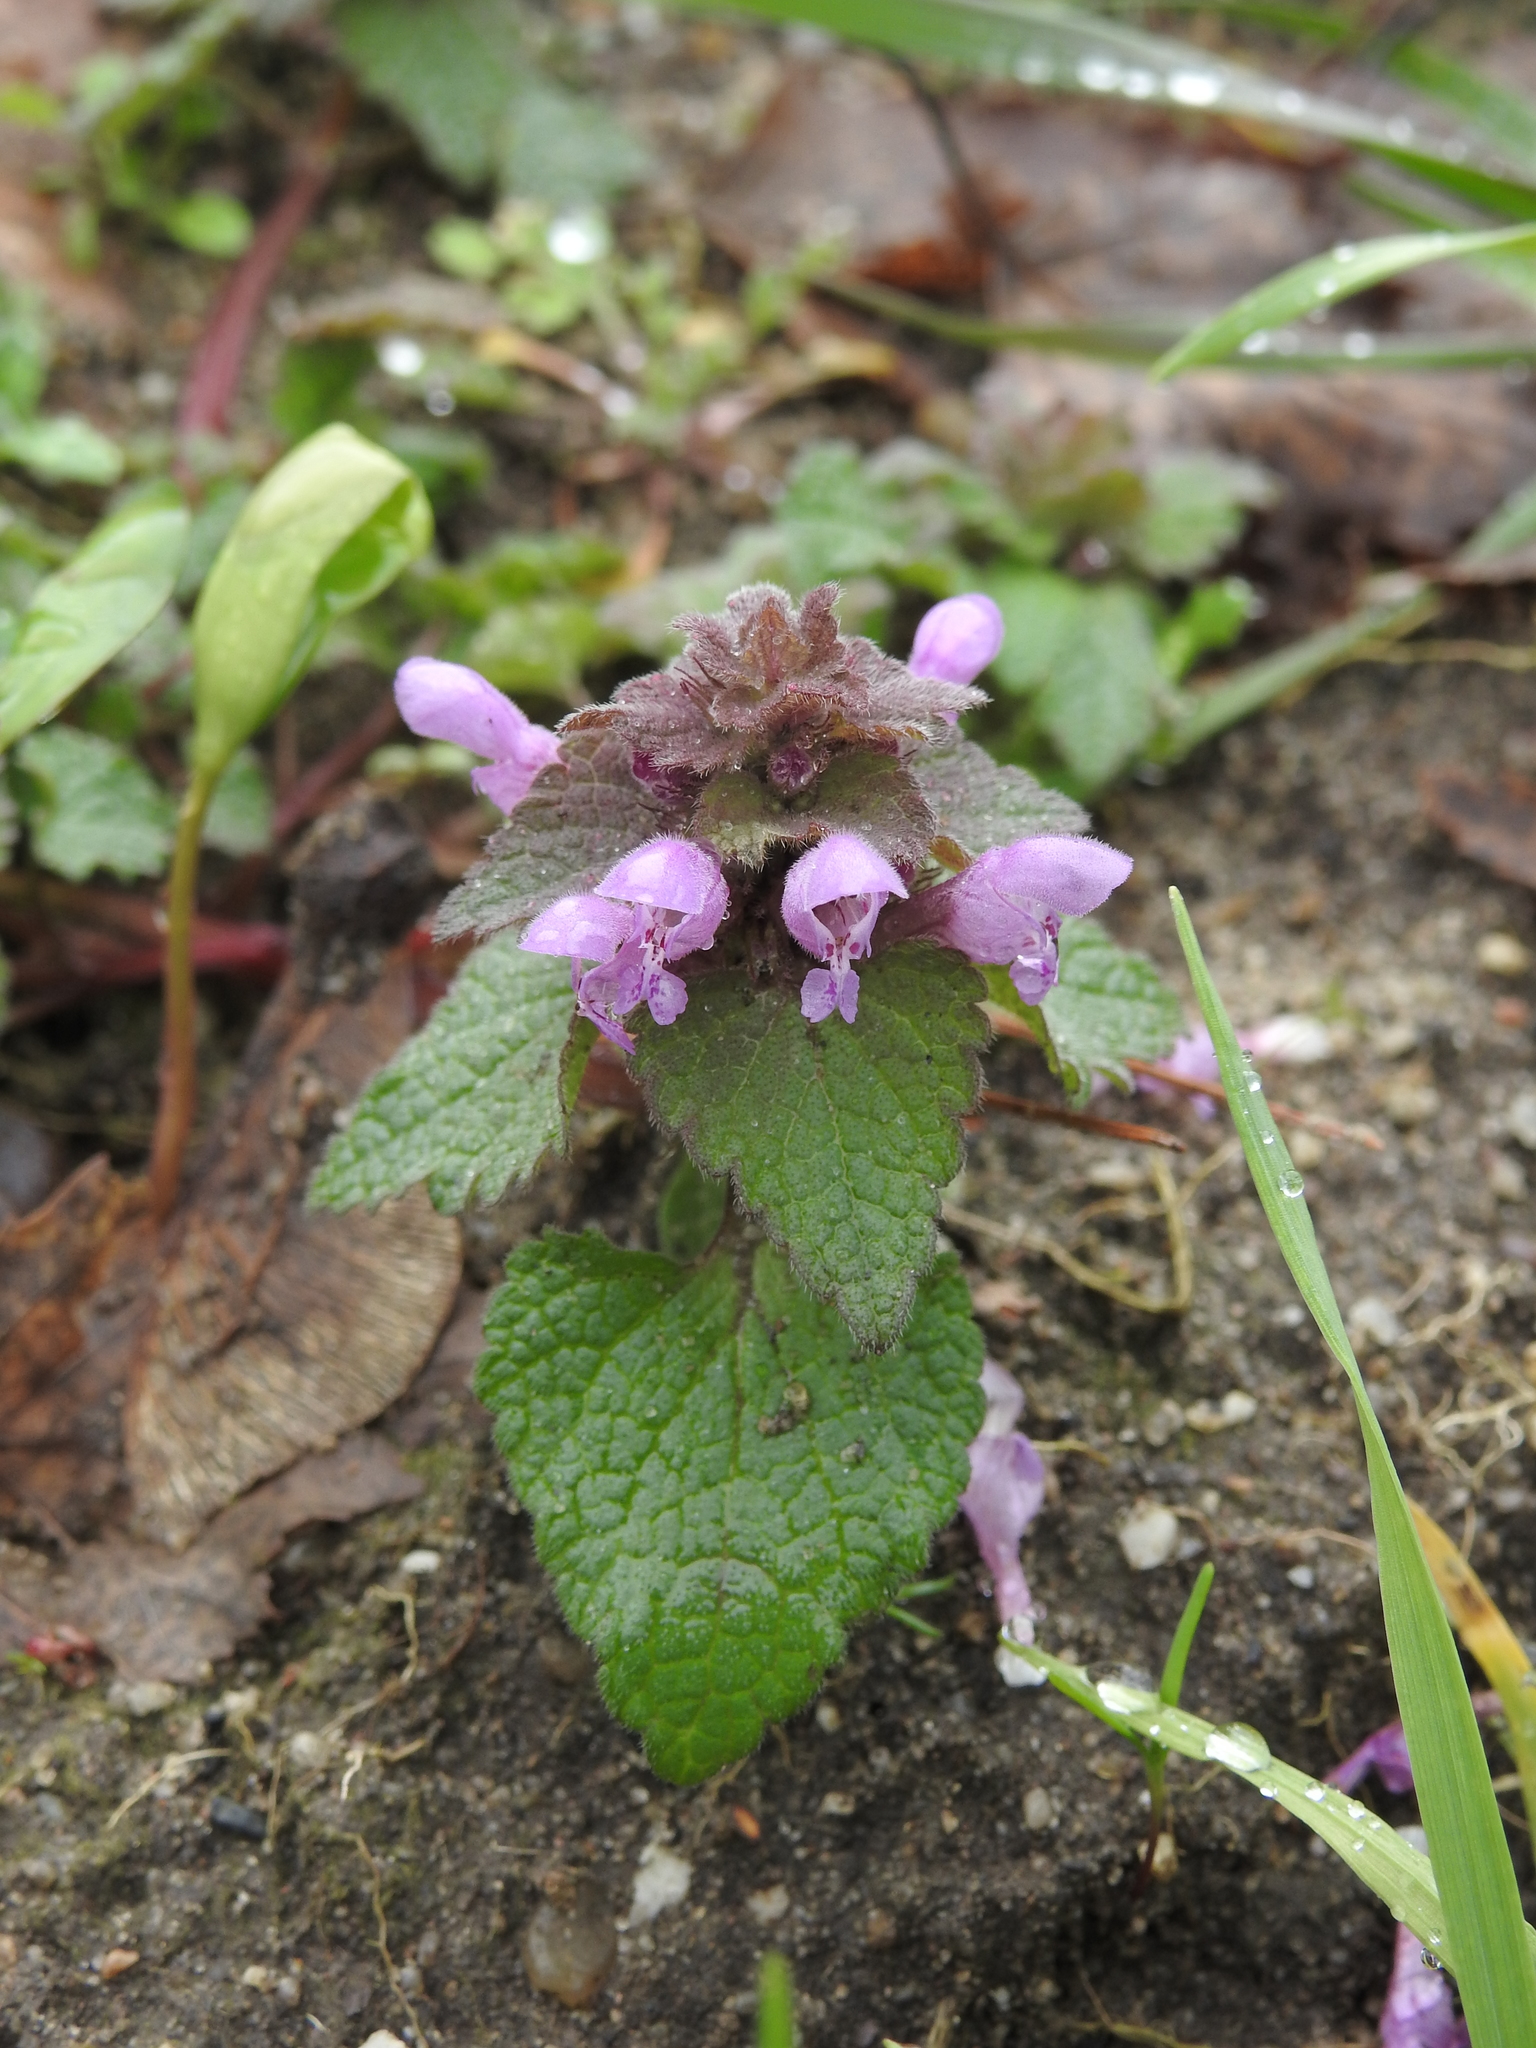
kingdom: Plantae
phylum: Tracheophyta
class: Magnoliopsida
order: Lamiales
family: Lamiaceae
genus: Lamium
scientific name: Lamium purpureum
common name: Red dead-nettle
